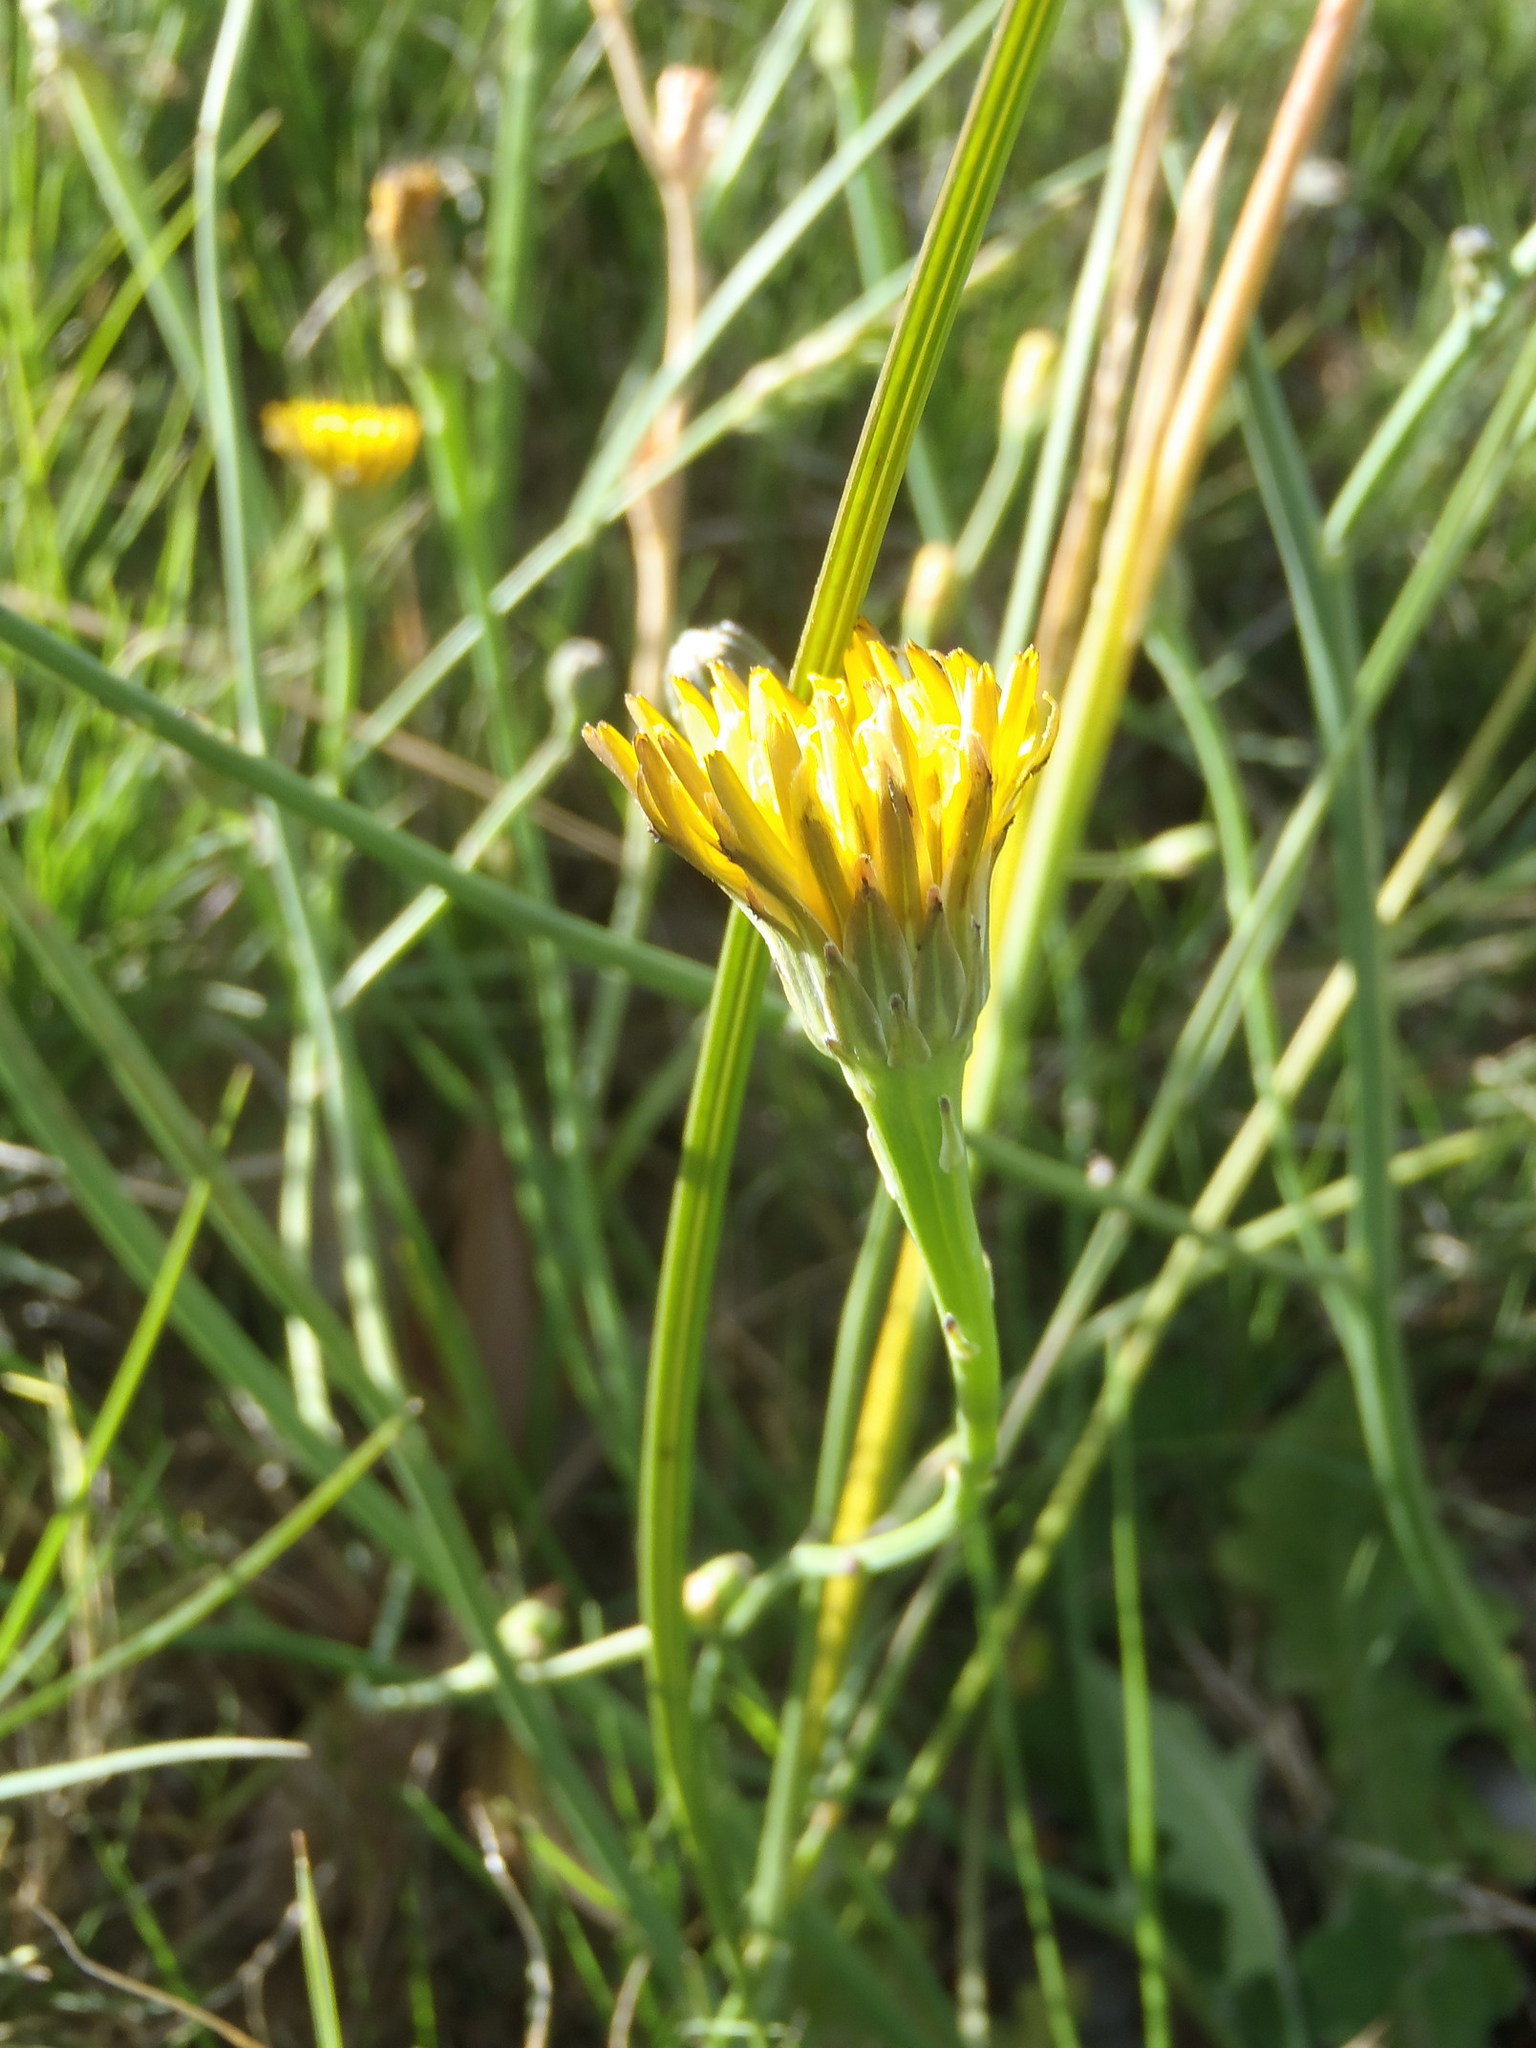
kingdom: Plantae
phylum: Tracheophyta
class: Magnoliopsida
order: Asterales
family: Asteraceae
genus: Hypochaeris
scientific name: Hypochaeris radicata
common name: Flatweed
